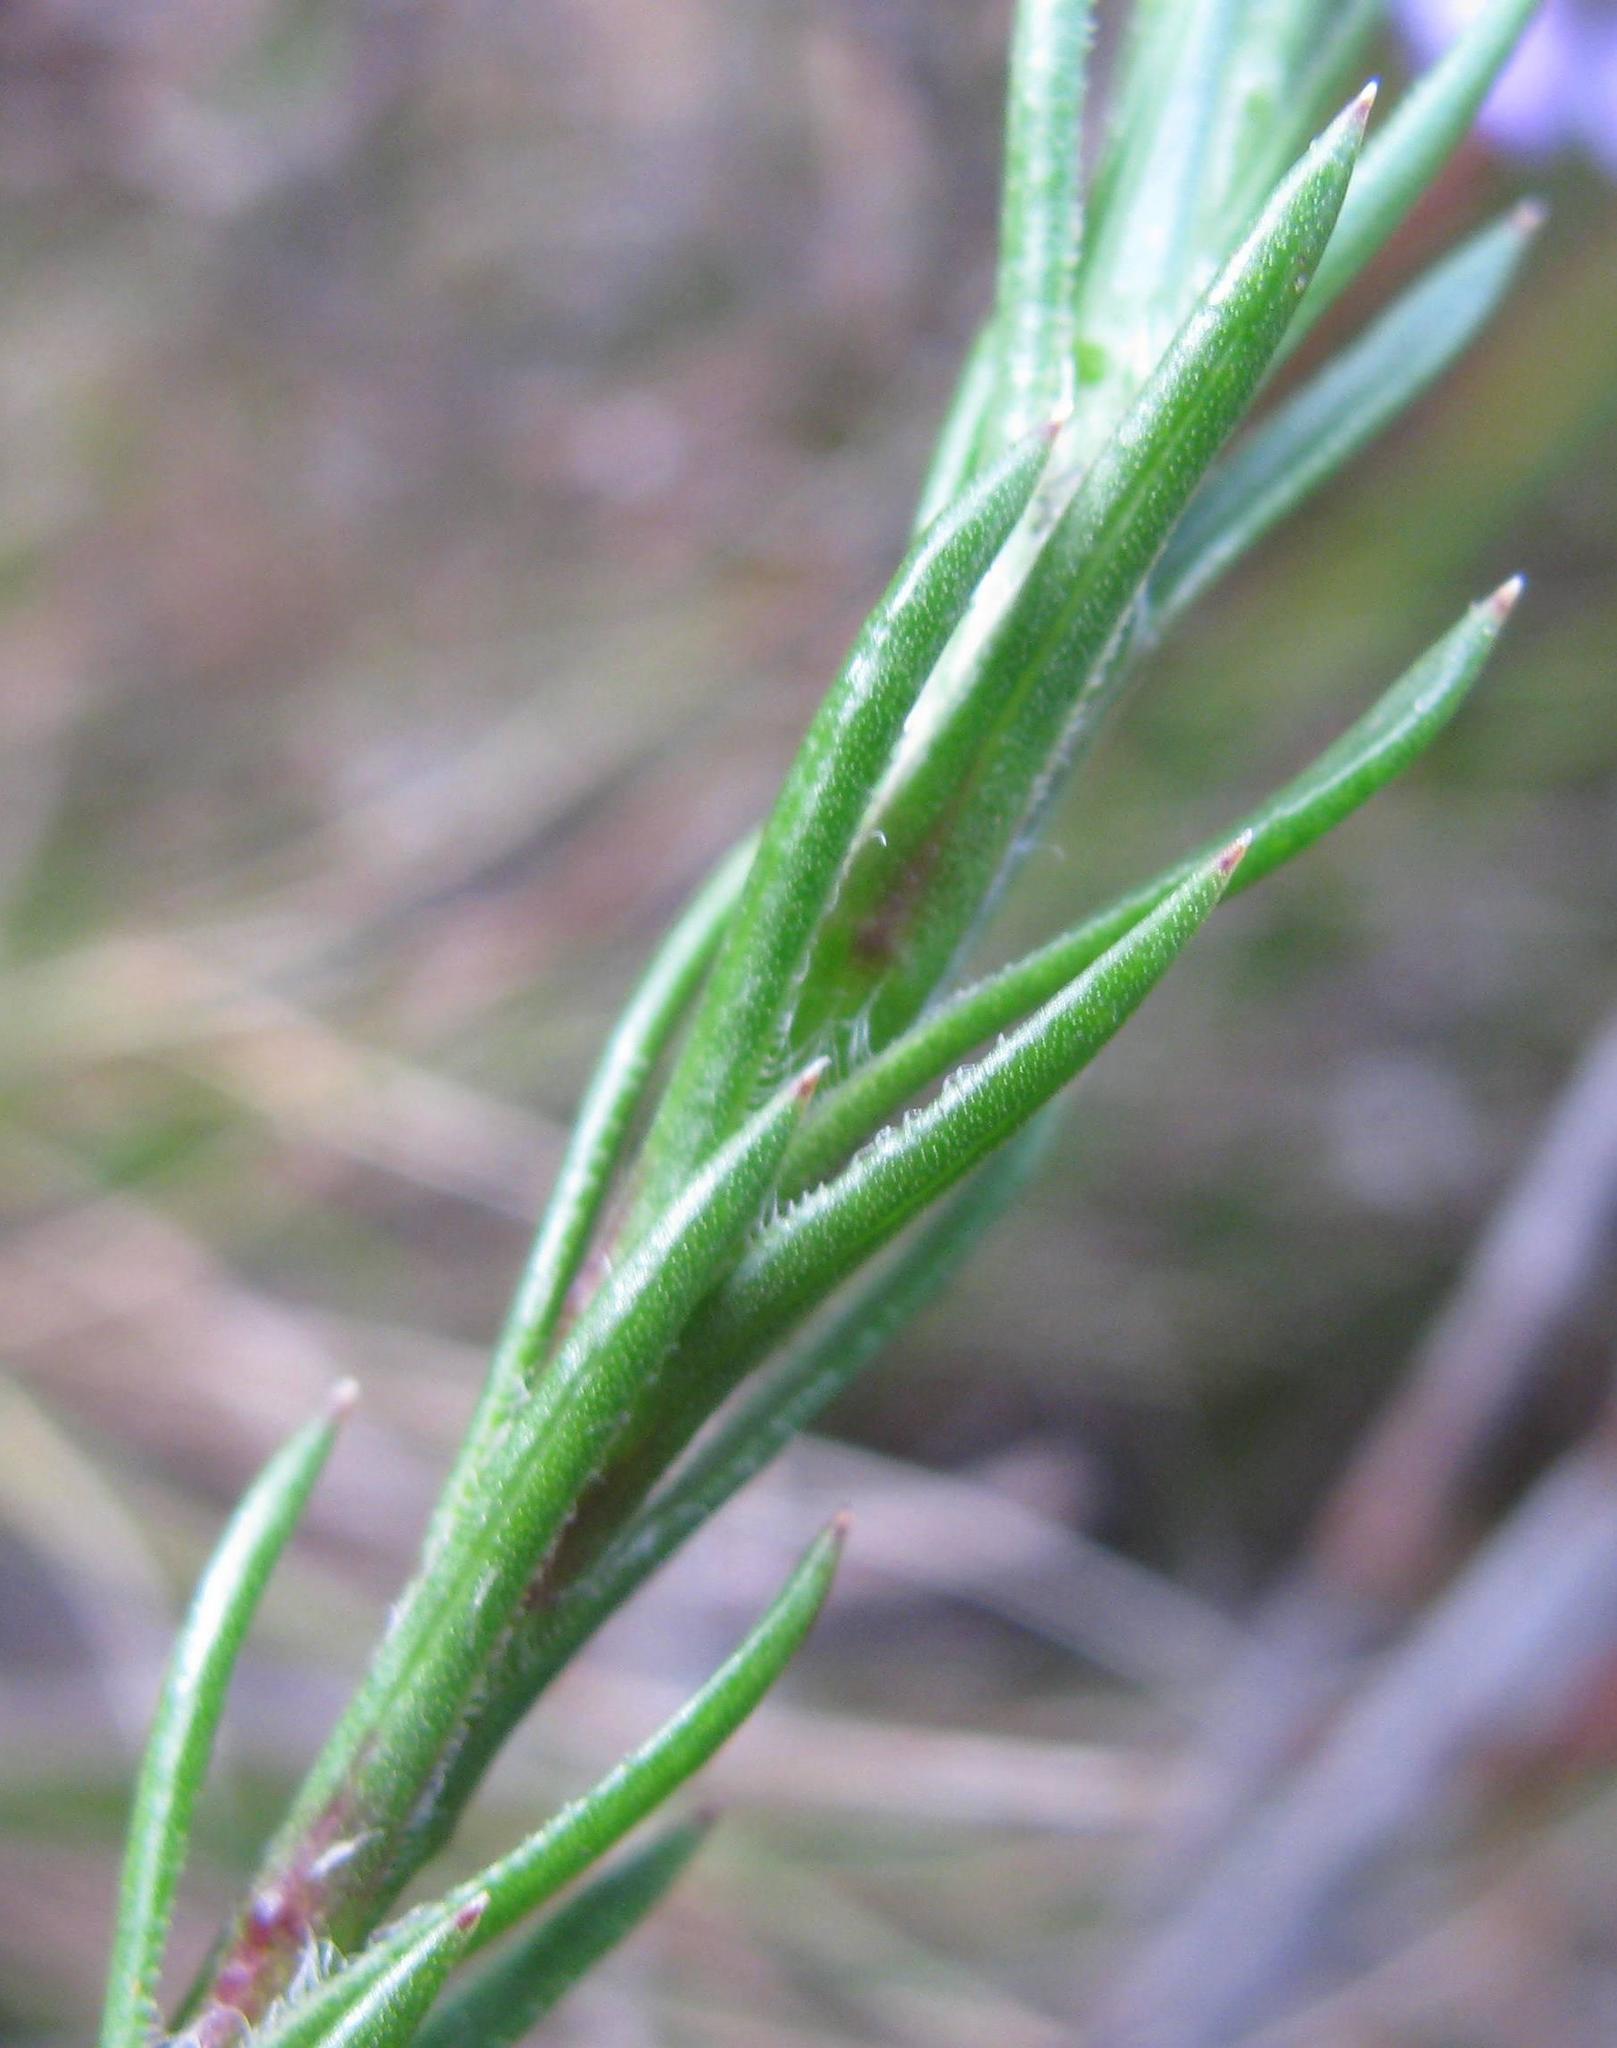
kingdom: Plantae
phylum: Tracheophyta
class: Magnoliopsida
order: Asterales
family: Asteraceae
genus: Zyrphelis
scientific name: Zyrphelis taxifolia
